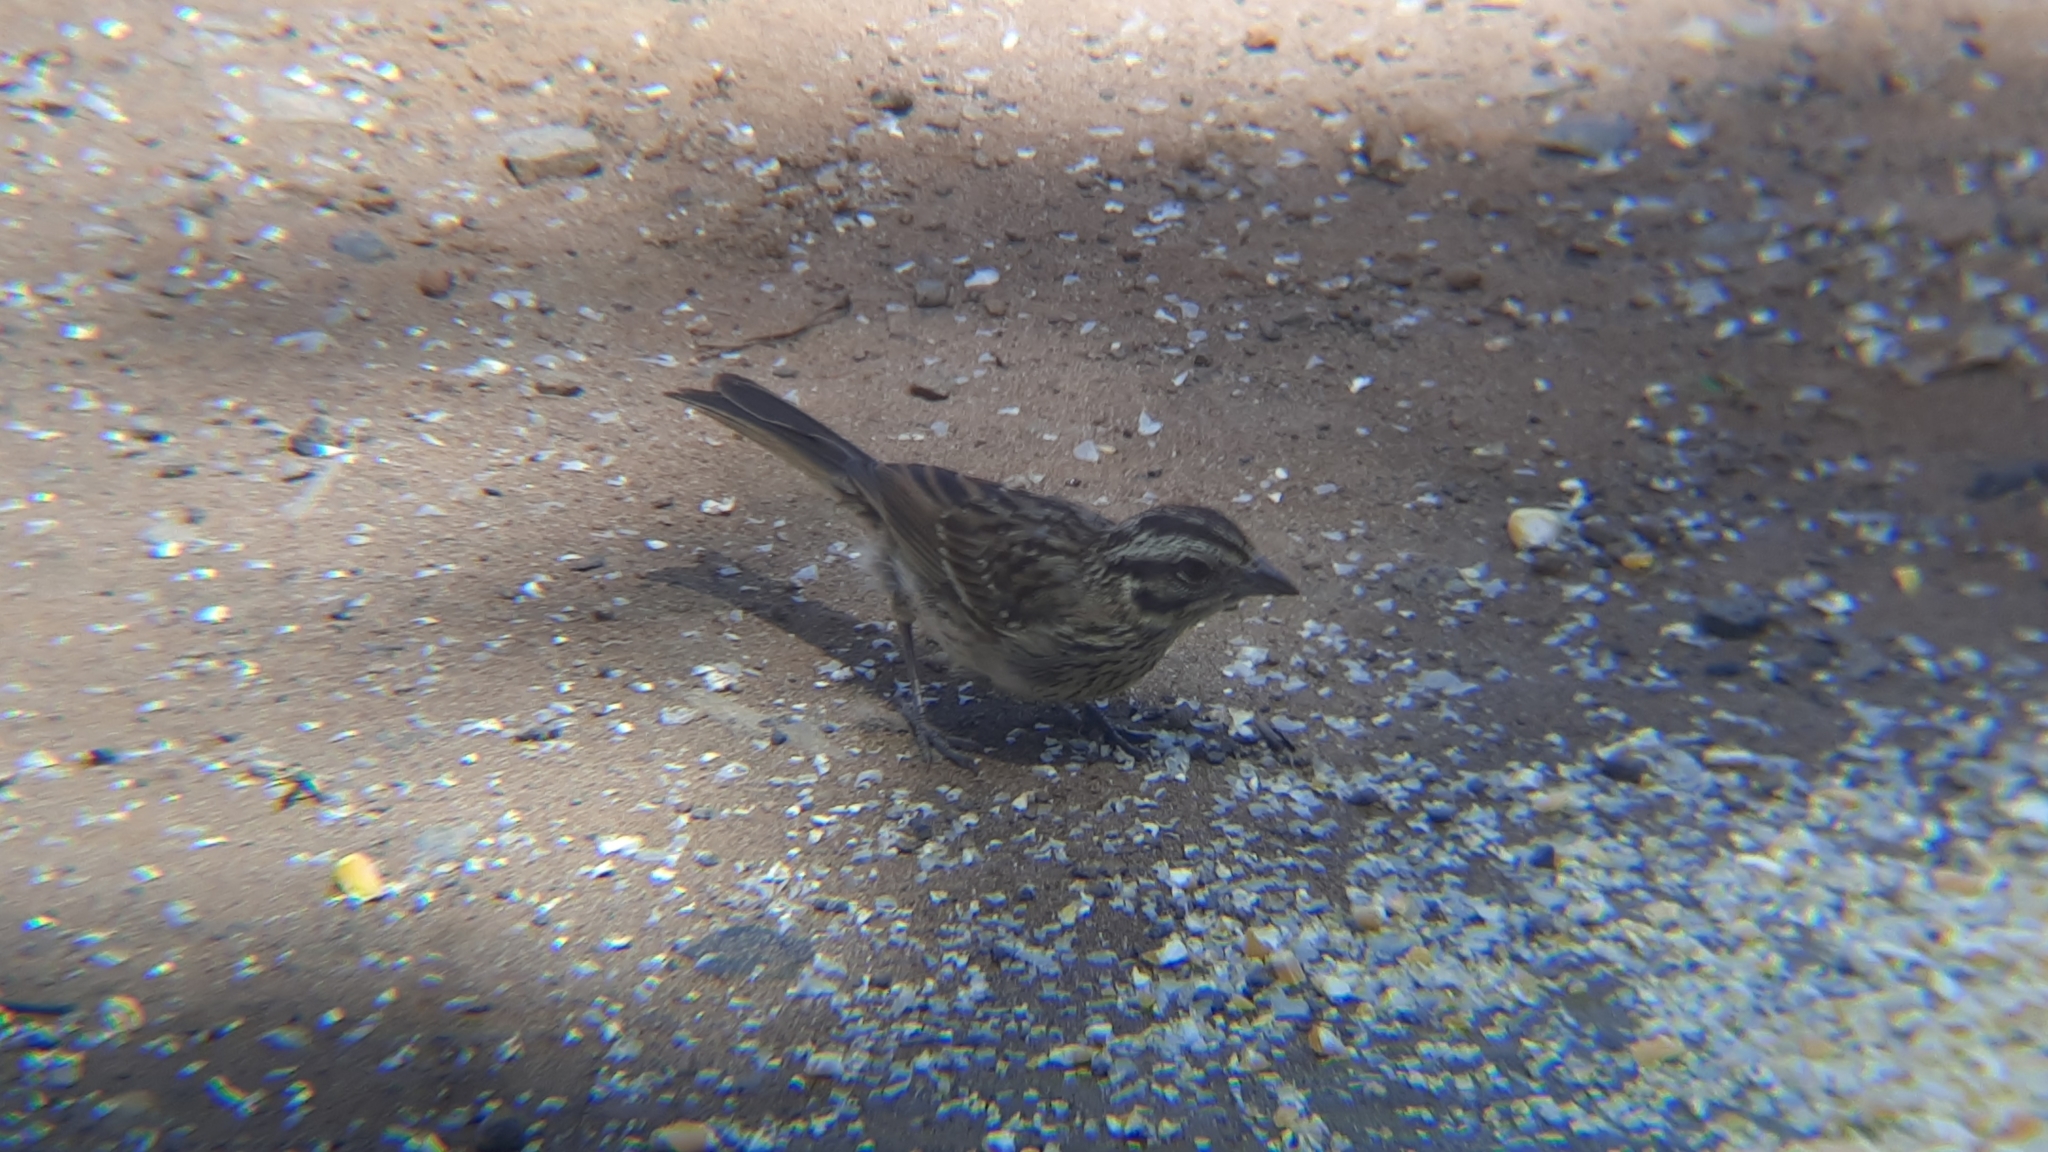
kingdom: Animalia
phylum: Chordata
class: Aves
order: Passeriformes
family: Passerellidae
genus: Zonotrichia
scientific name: Zonotrichia capensis
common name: Rufous-collared sparrow
